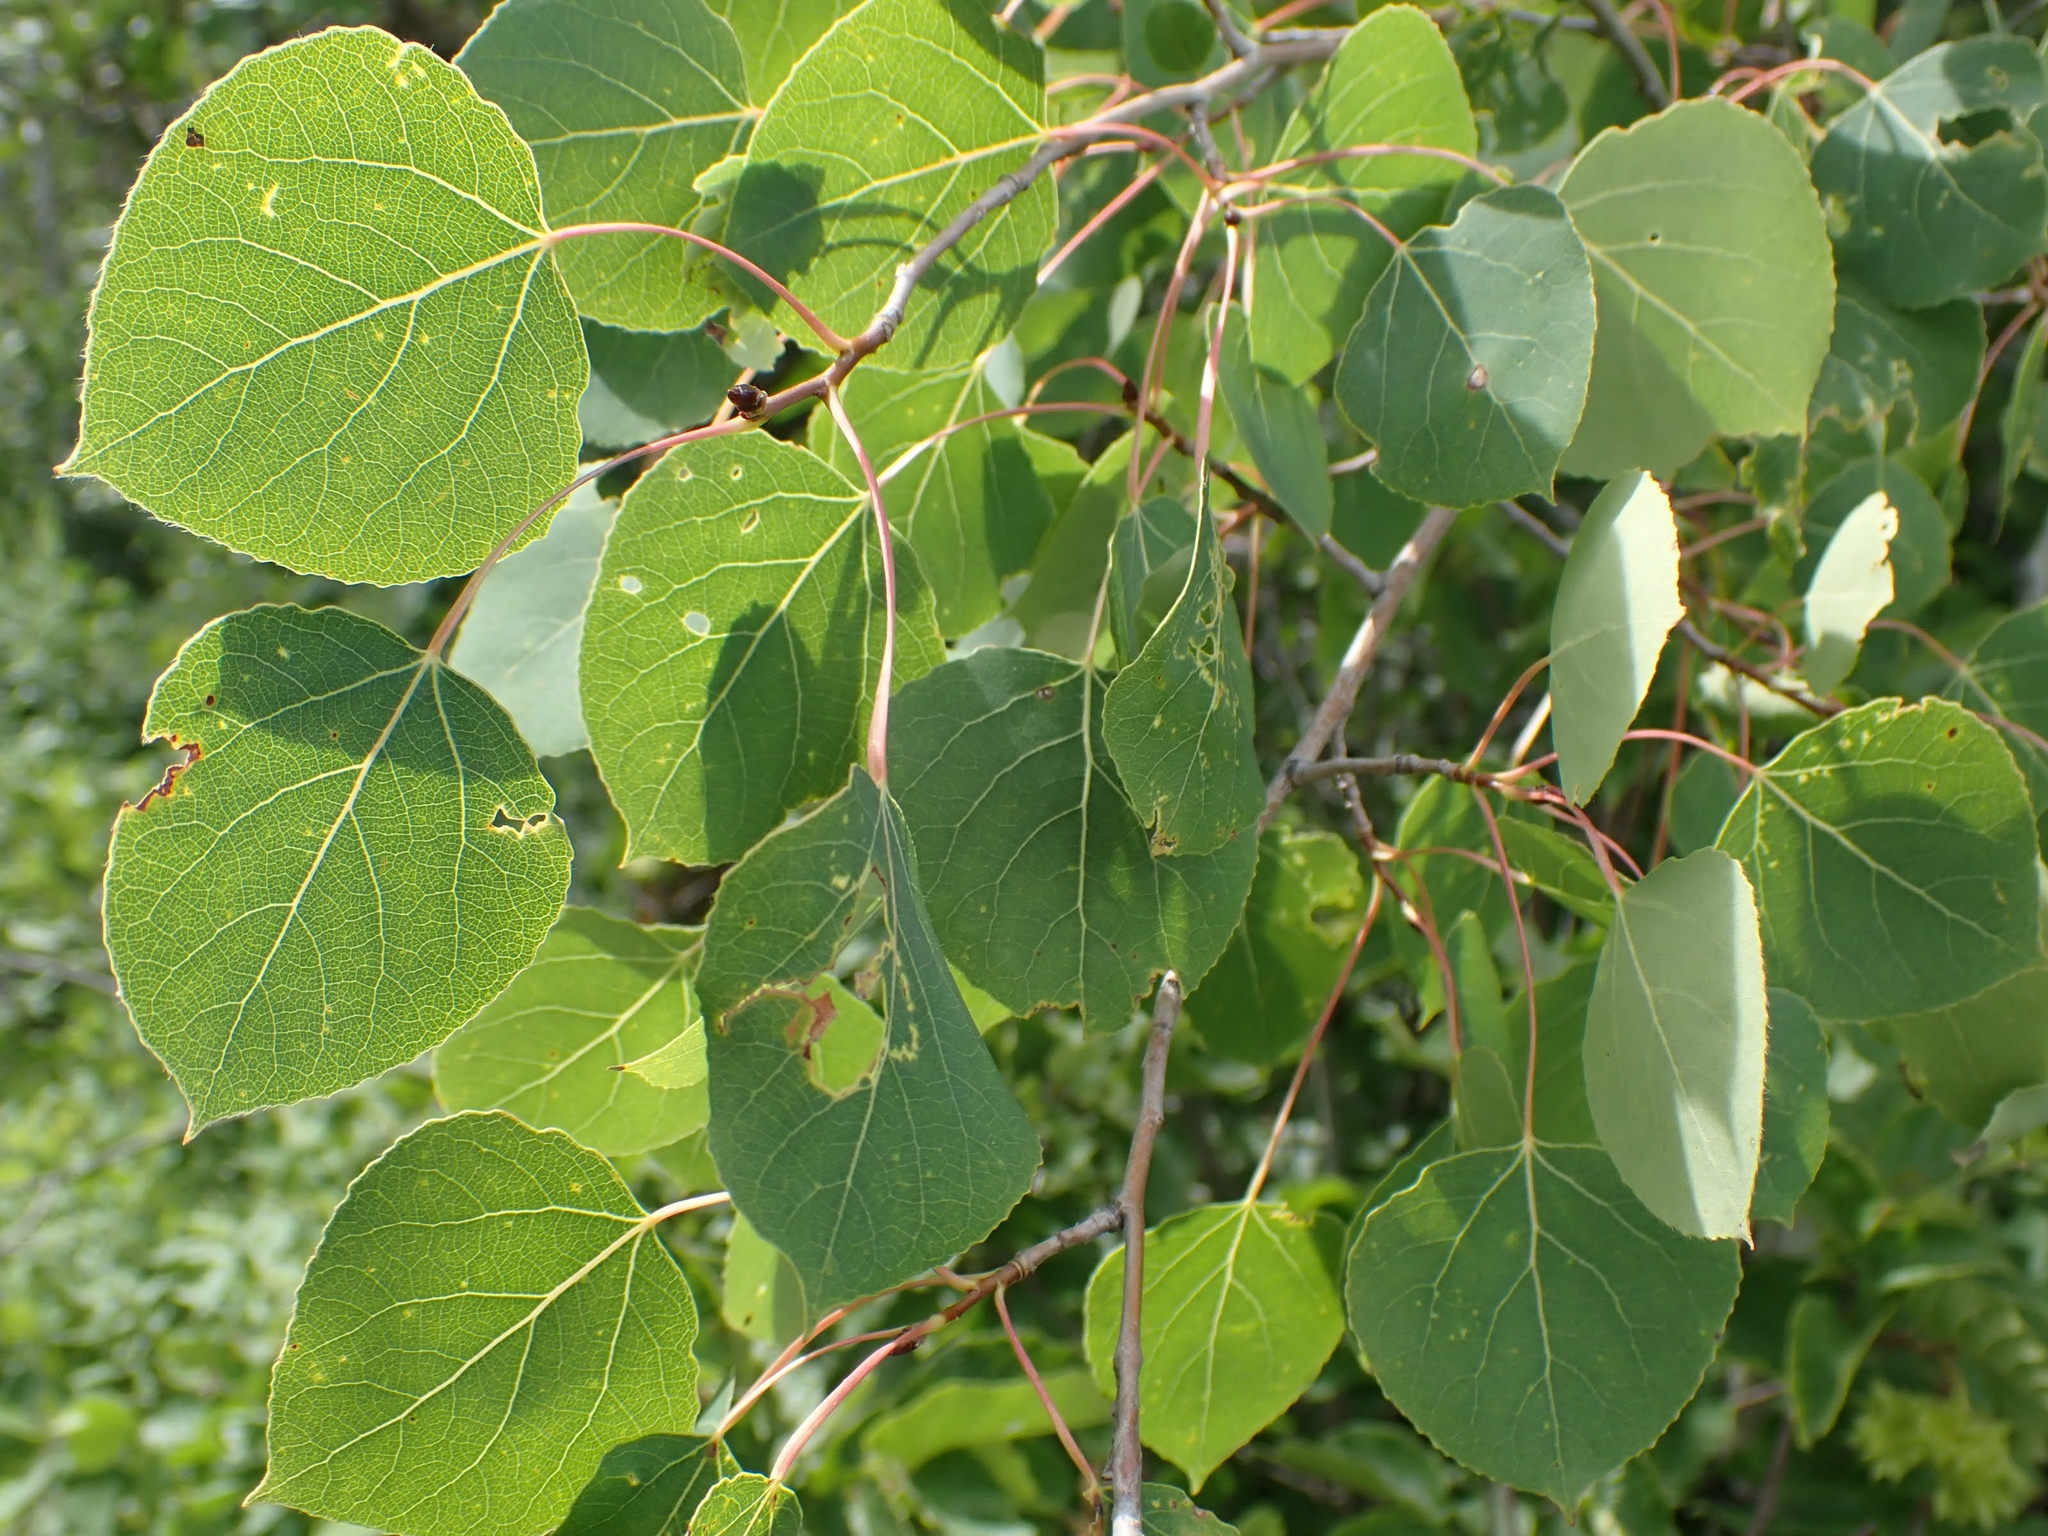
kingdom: Plantae
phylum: Tracheophyta
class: Magnoliopsida
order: Malpighiales
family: Salicaceae
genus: Populus
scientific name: Populus tremuloides
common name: Quaking aspen
